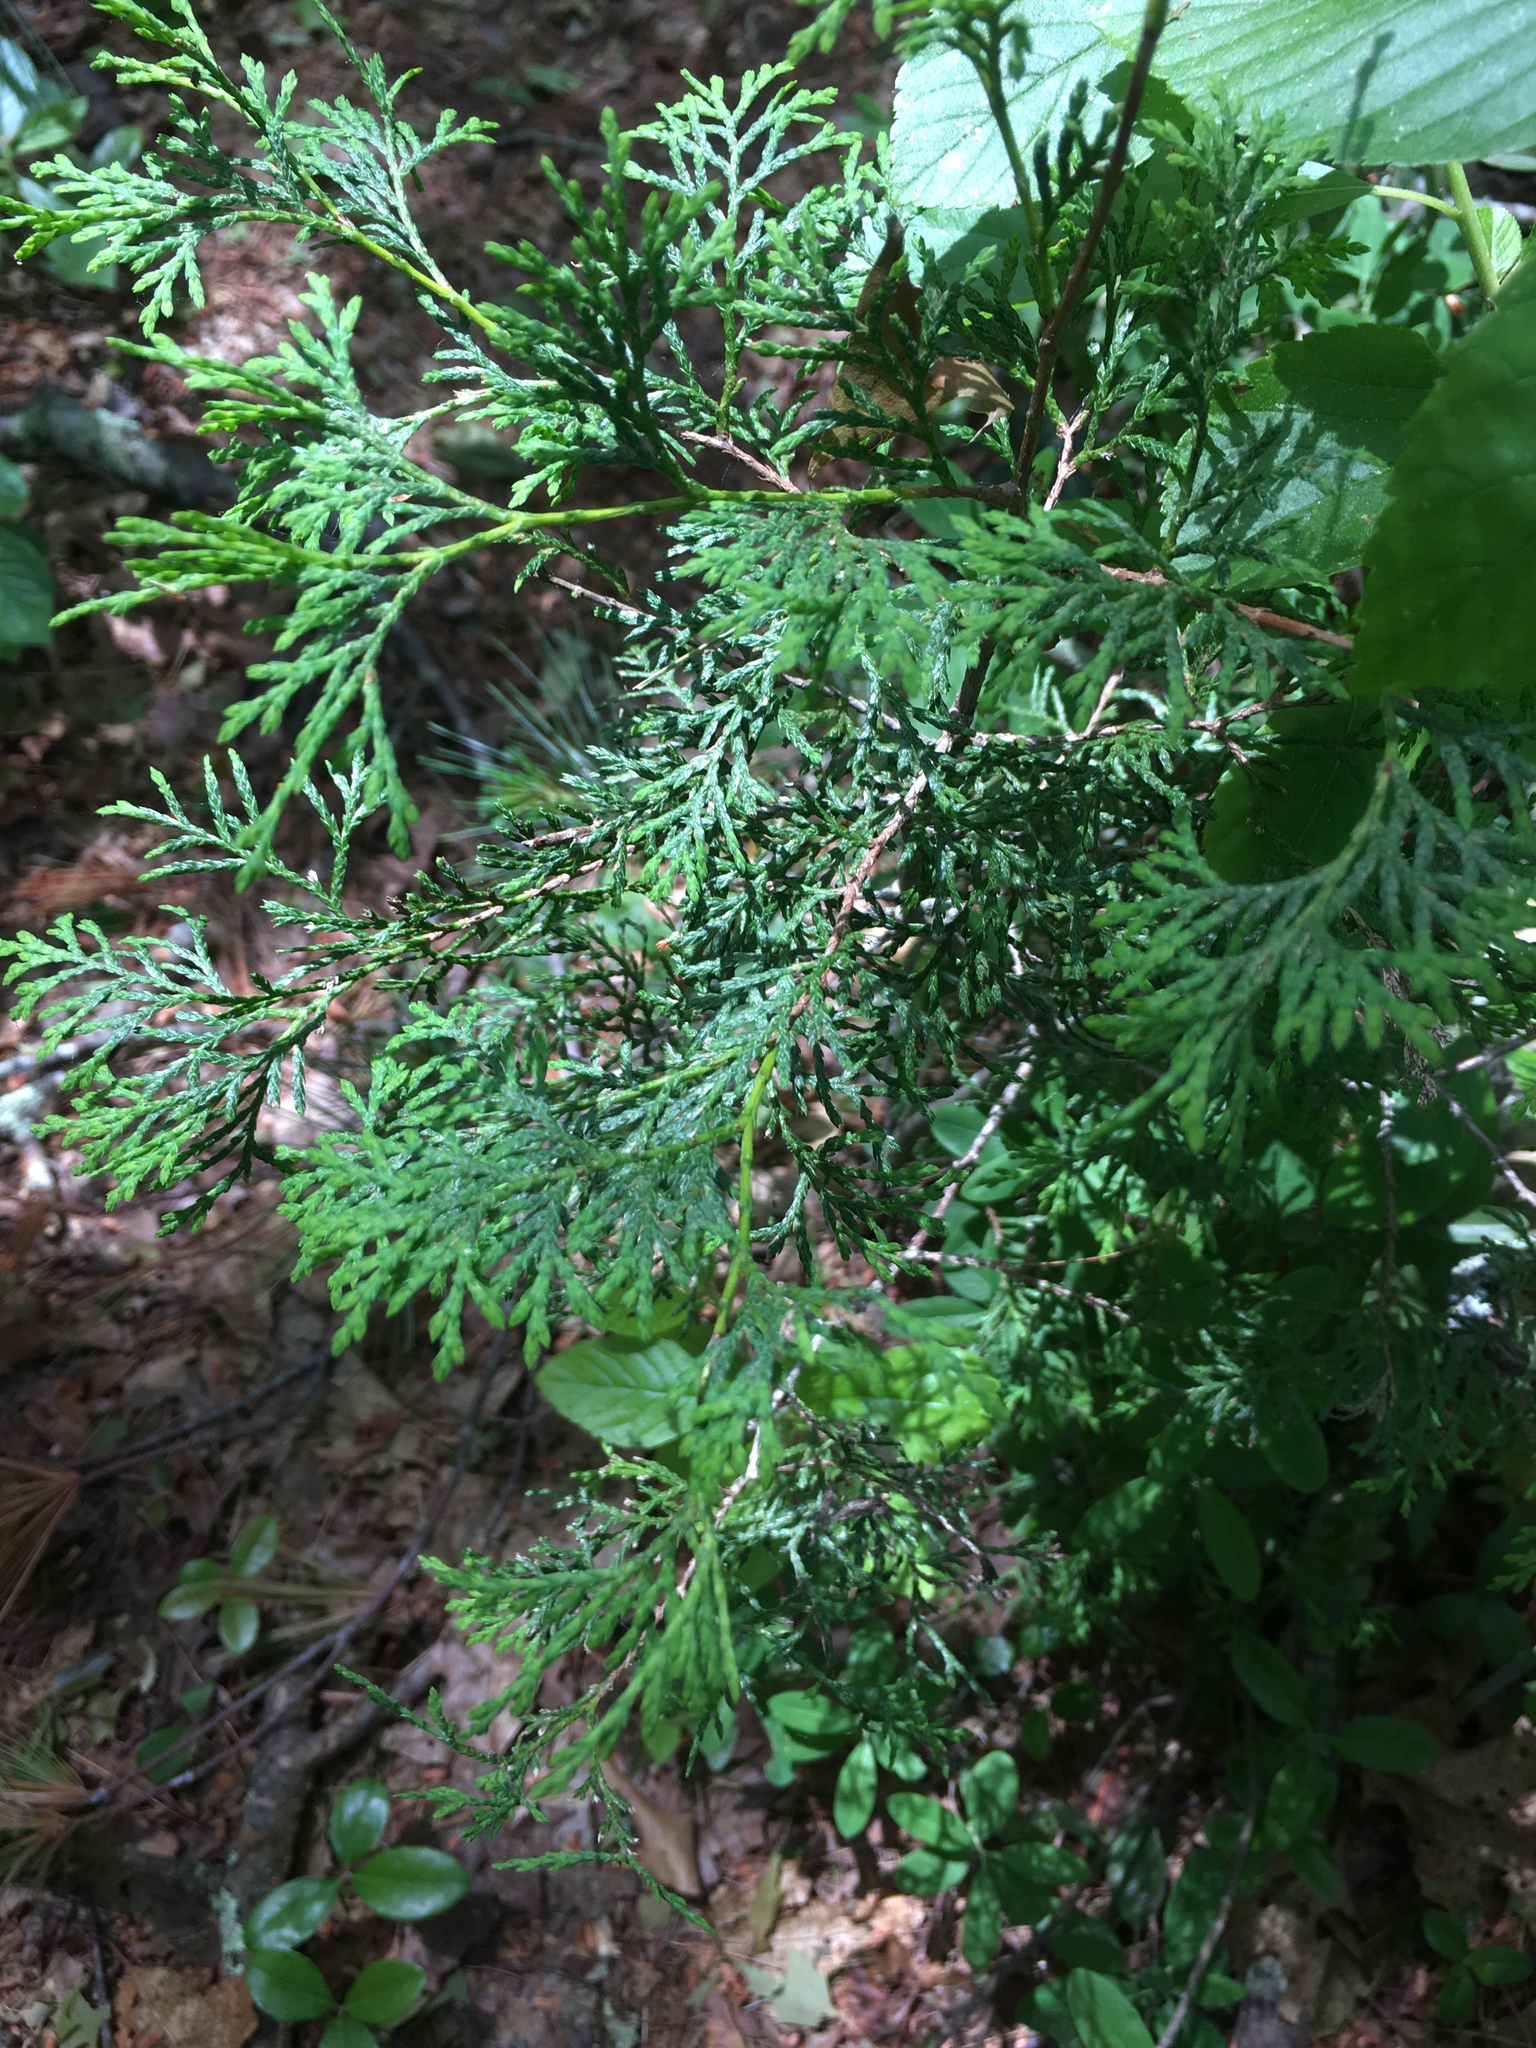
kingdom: Plantae
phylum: Tracheophyta
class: Pinopsida
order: Pinales
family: Cupressaceae
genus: Chamaecyparis
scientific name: Chamaecyparis thyoides
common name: Atlantic white cedar
